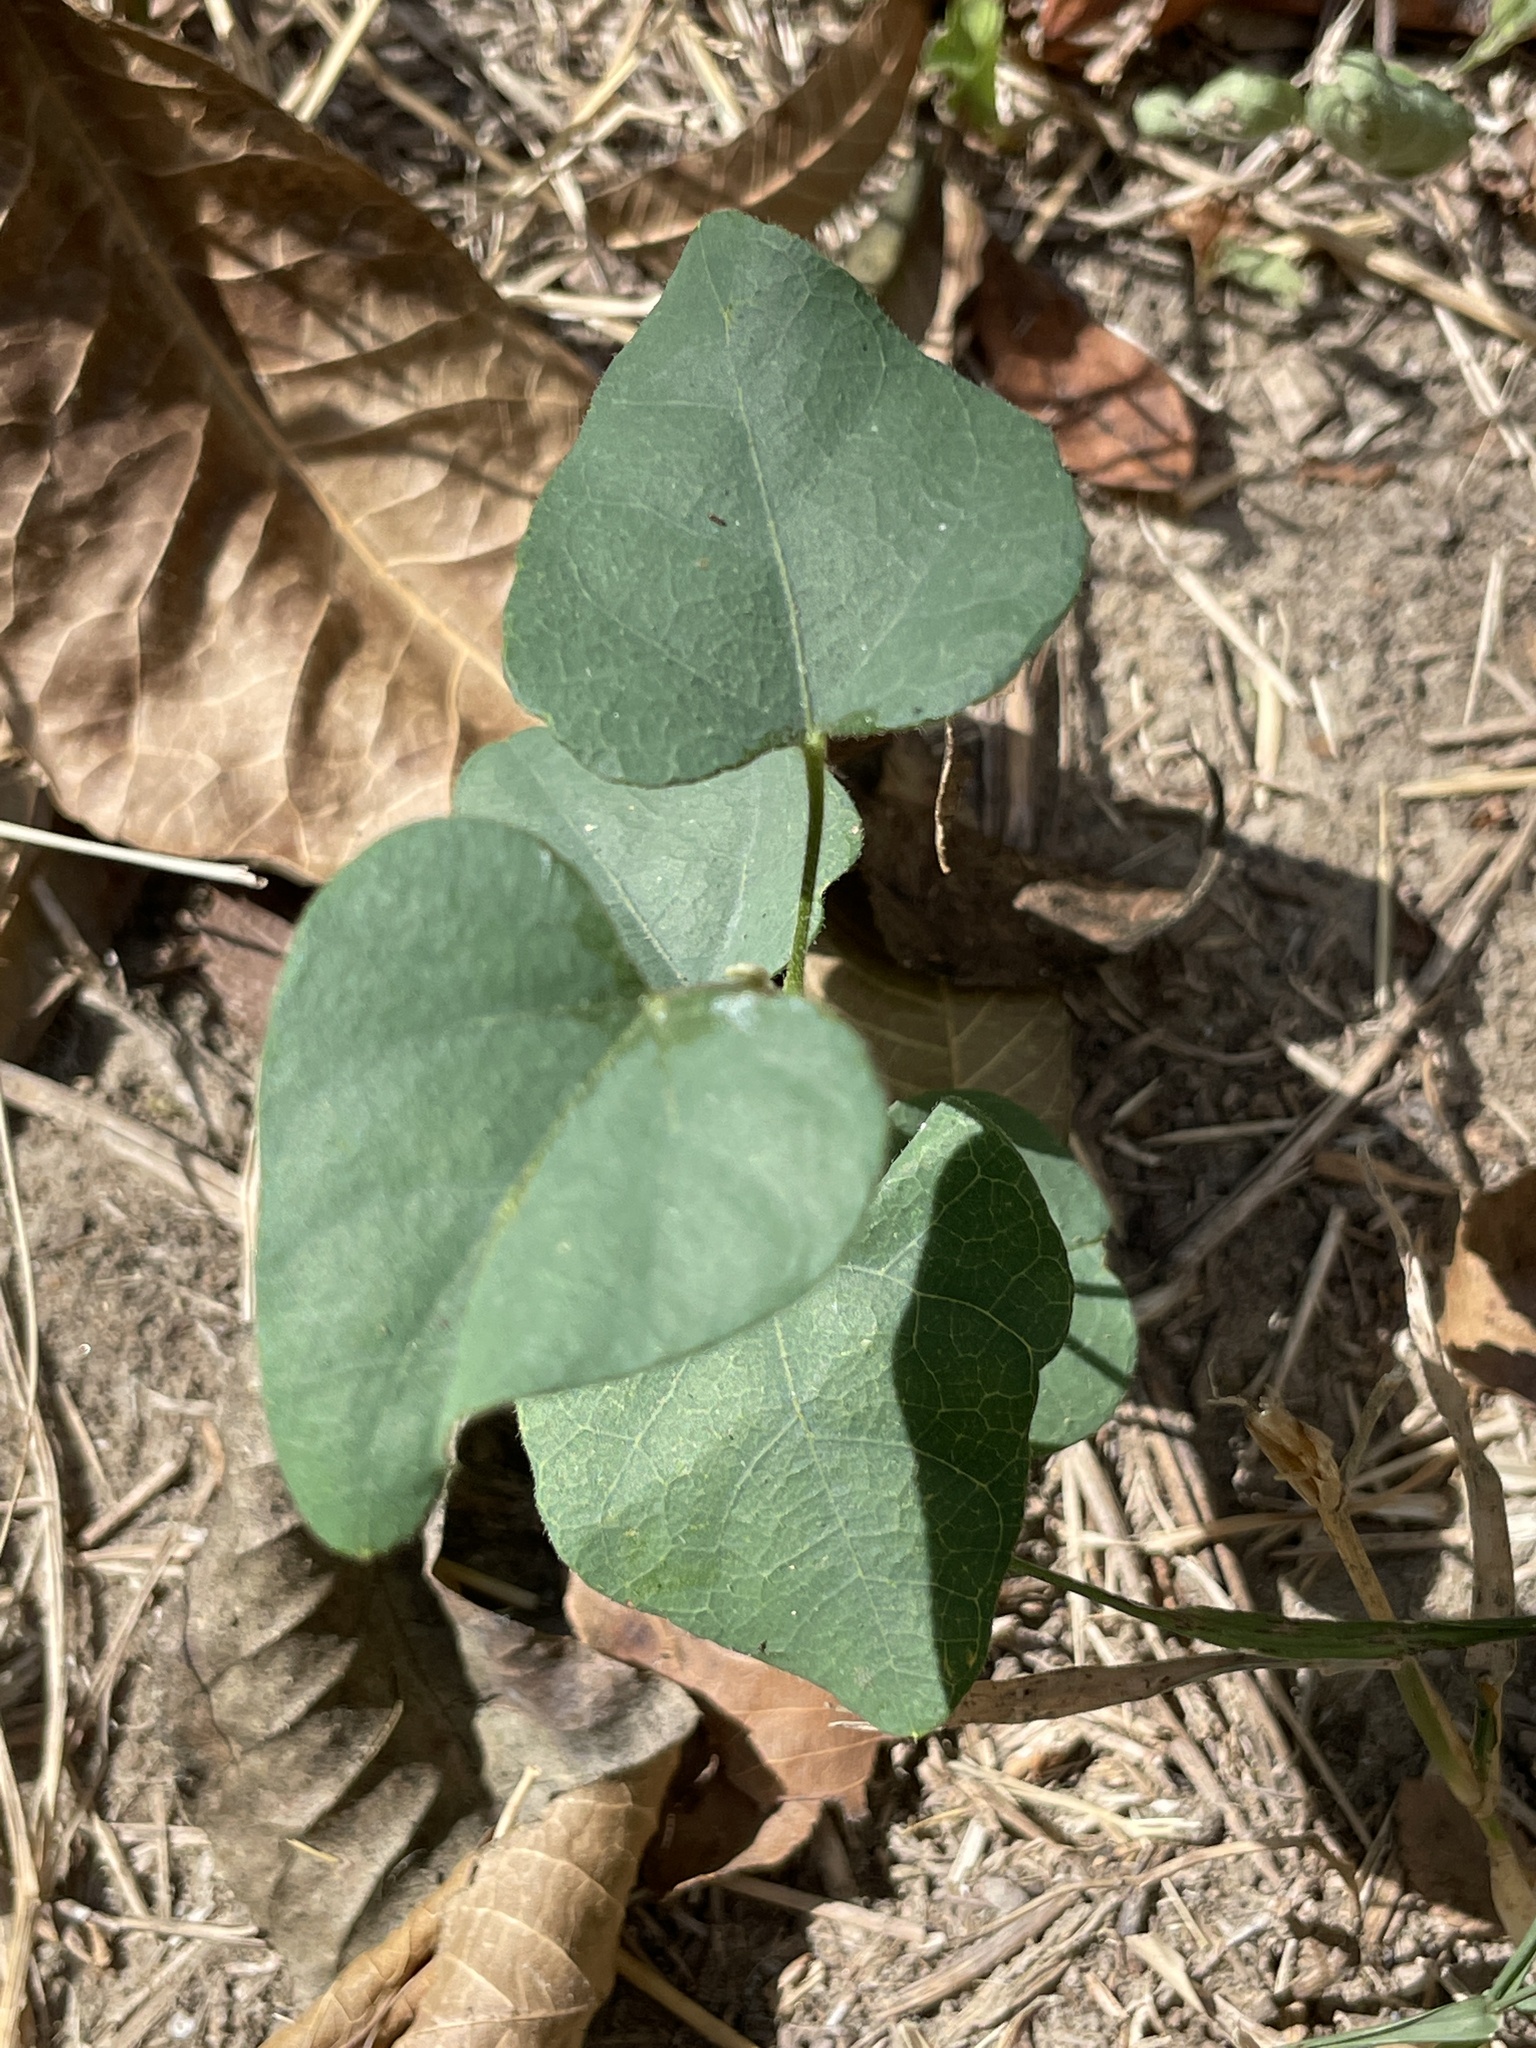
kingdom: Plantae
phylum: Tracheophyta
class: Magnoliopsida
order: Ranunculales
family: Menispermaceae
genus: Cocculus
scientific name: Cocculus carolinus
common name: Carolina moonseed
